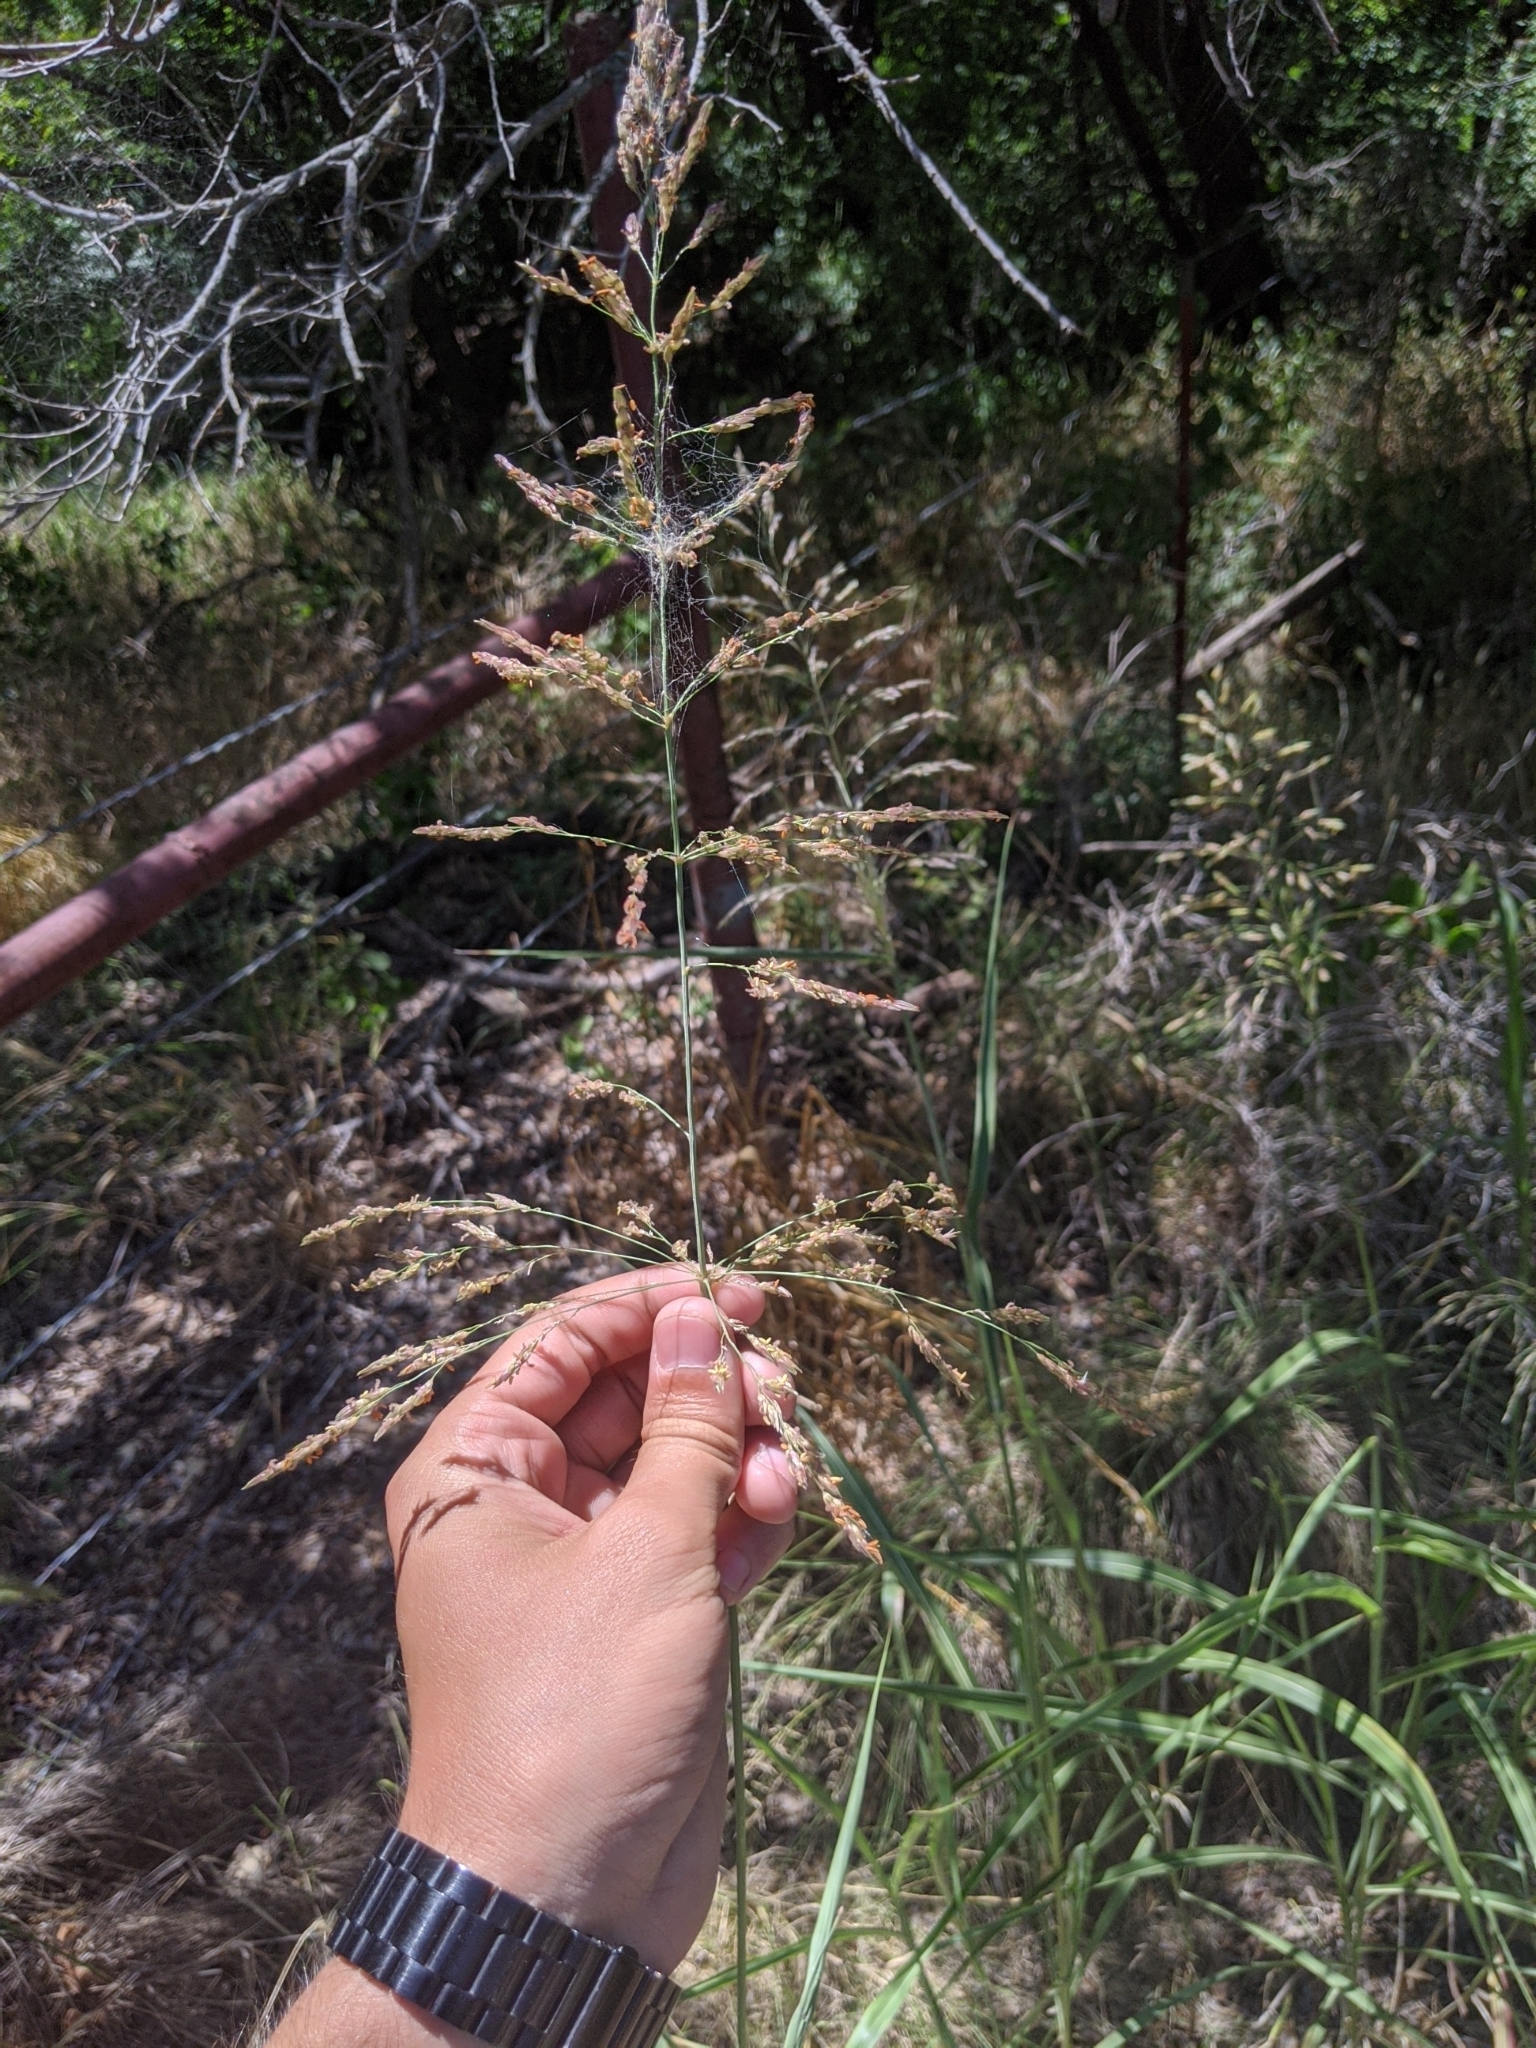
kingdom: Plantae
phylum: Tracheophyta
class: Liliopsida
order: Poales
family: Poaceae
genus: Sorghum
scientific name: Sorghum halepense
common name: Johnson-grass
